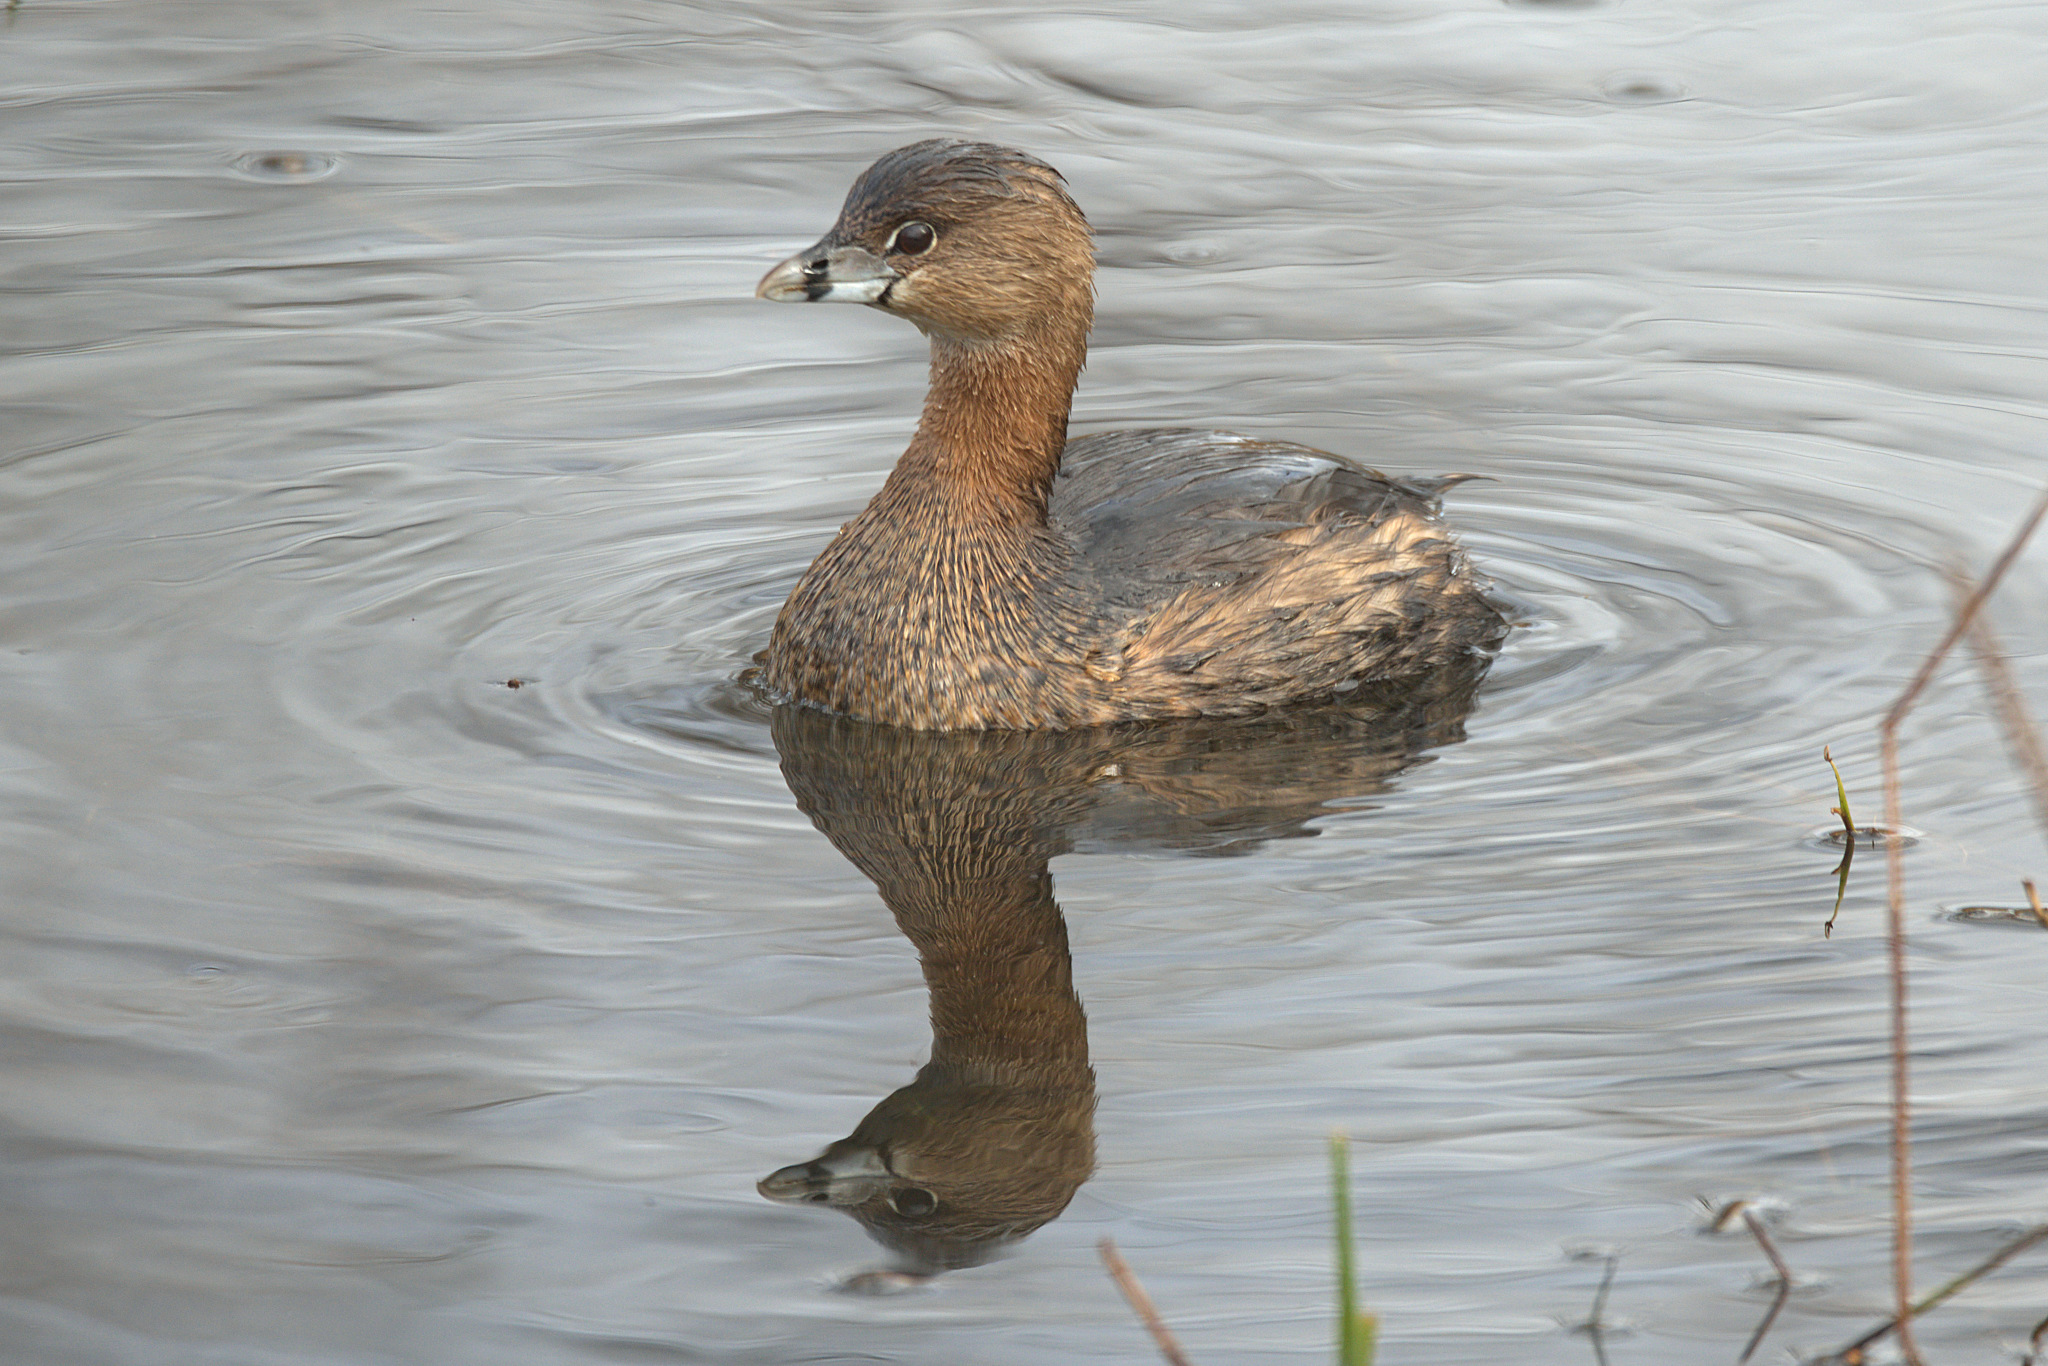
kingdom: Animalia
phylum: Chordata
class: Aves
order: Podicipediformes
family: Podicipedidae
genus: Podilymbus
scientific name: Podilymbus podiceps
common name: Pied-billed grebe
